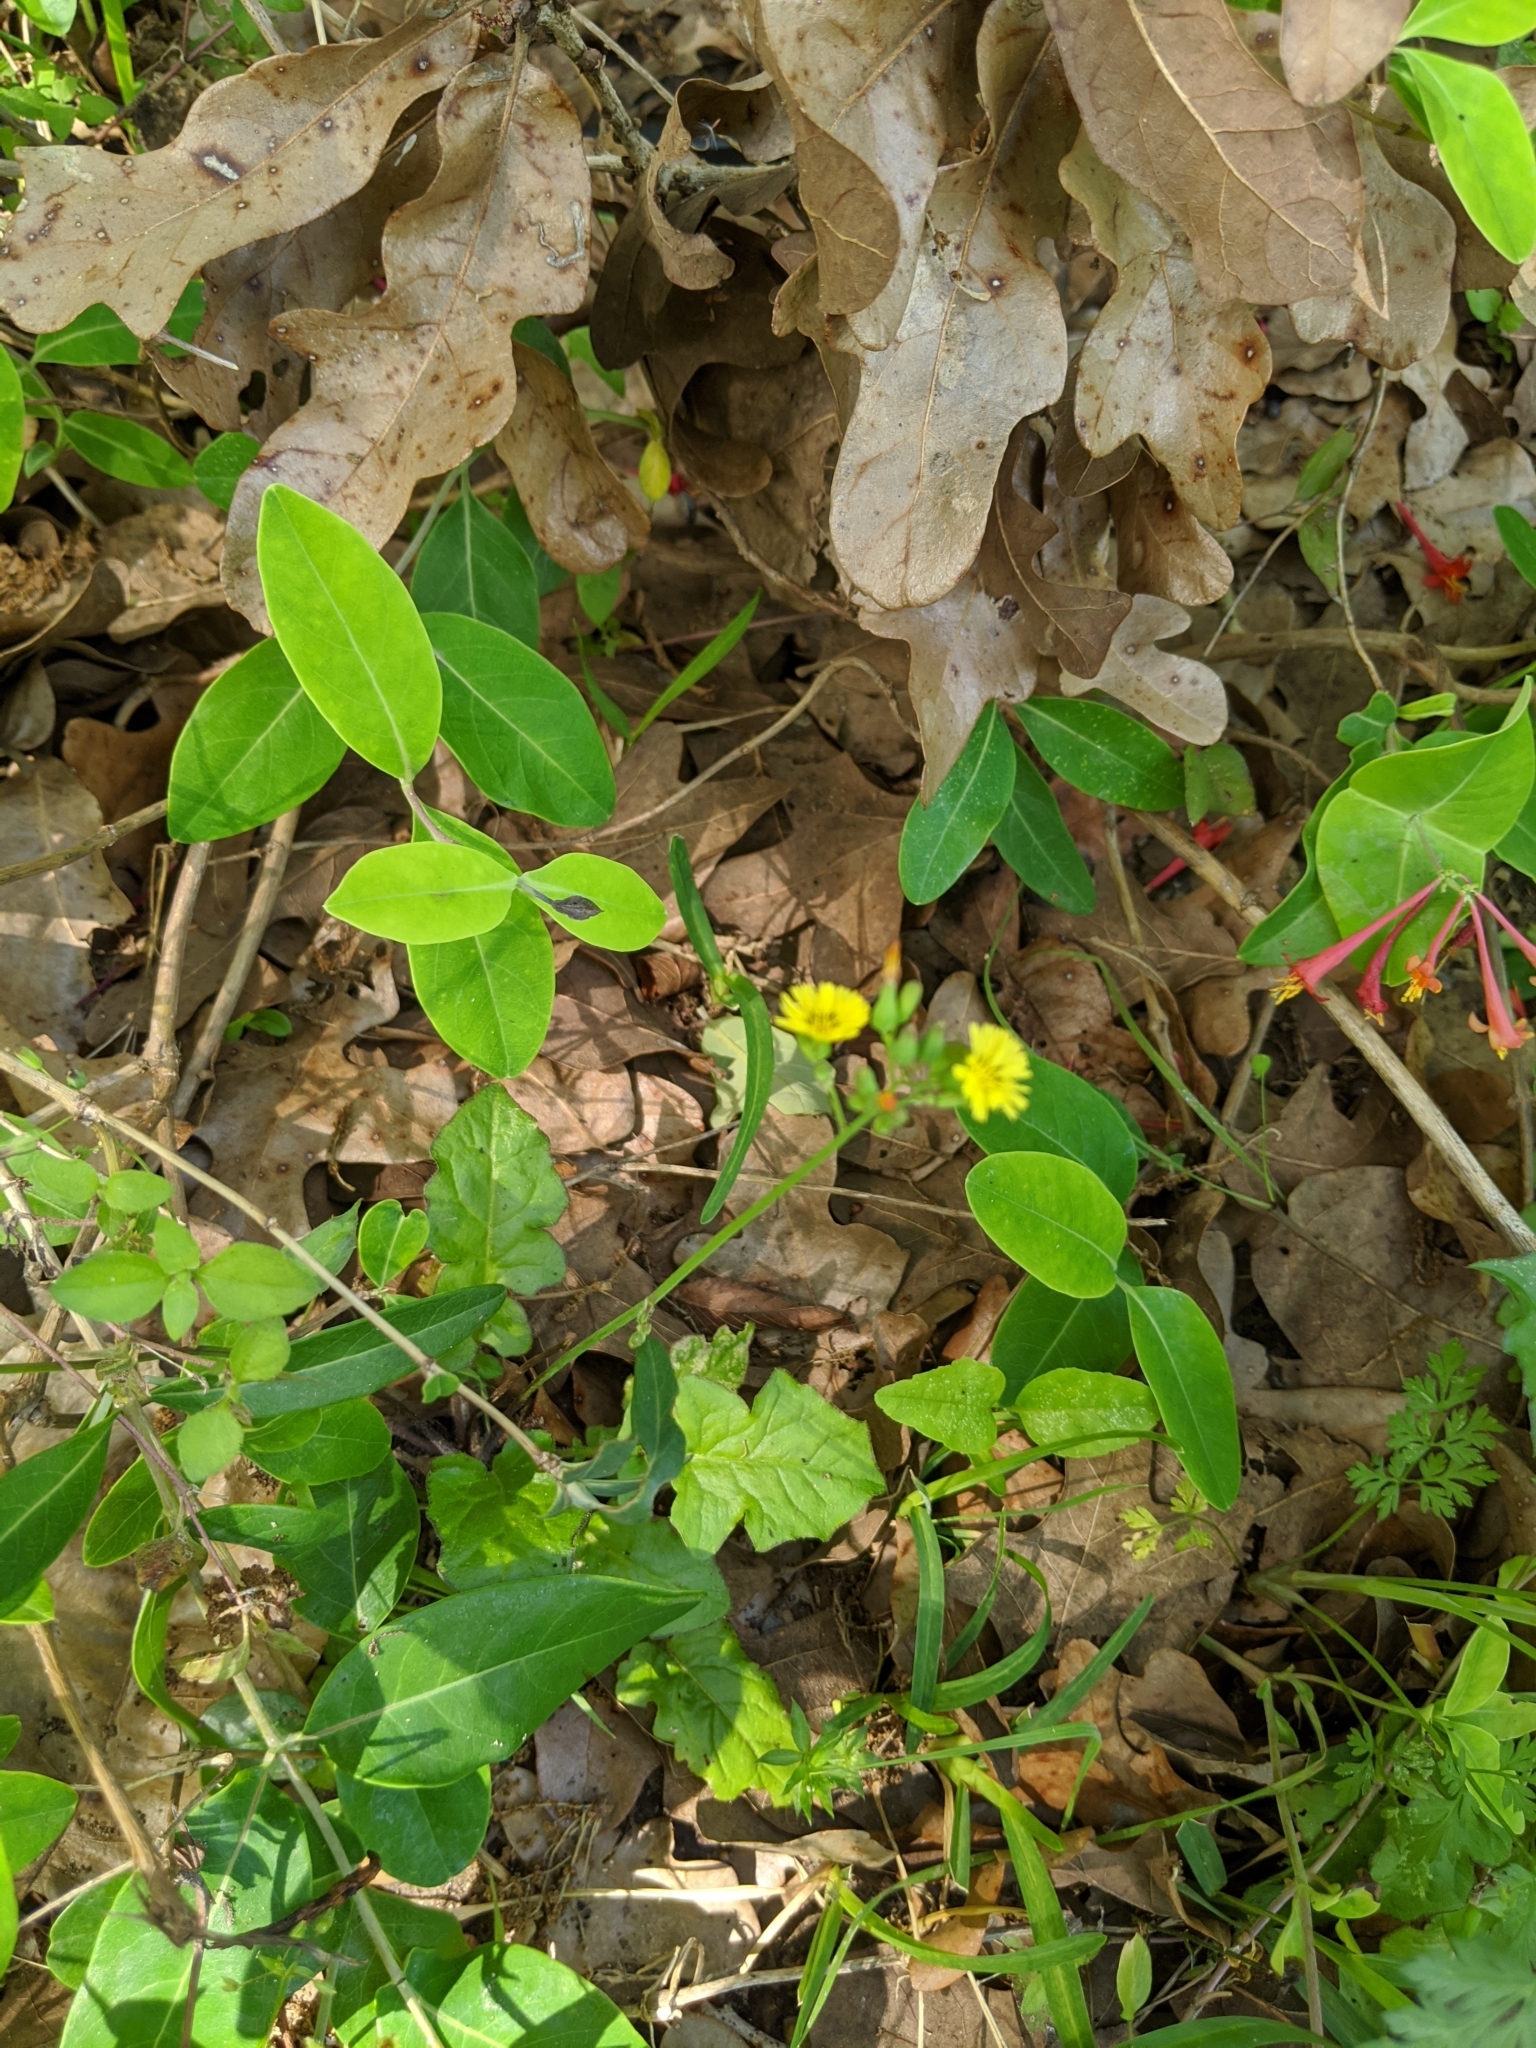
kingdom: Plantae
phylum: Tracheophyta
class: Magnoliopsida
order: Asterales
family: Asteraceae
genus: Youngia
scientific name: Youngia japonica
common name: Oriental false hawksbeard
